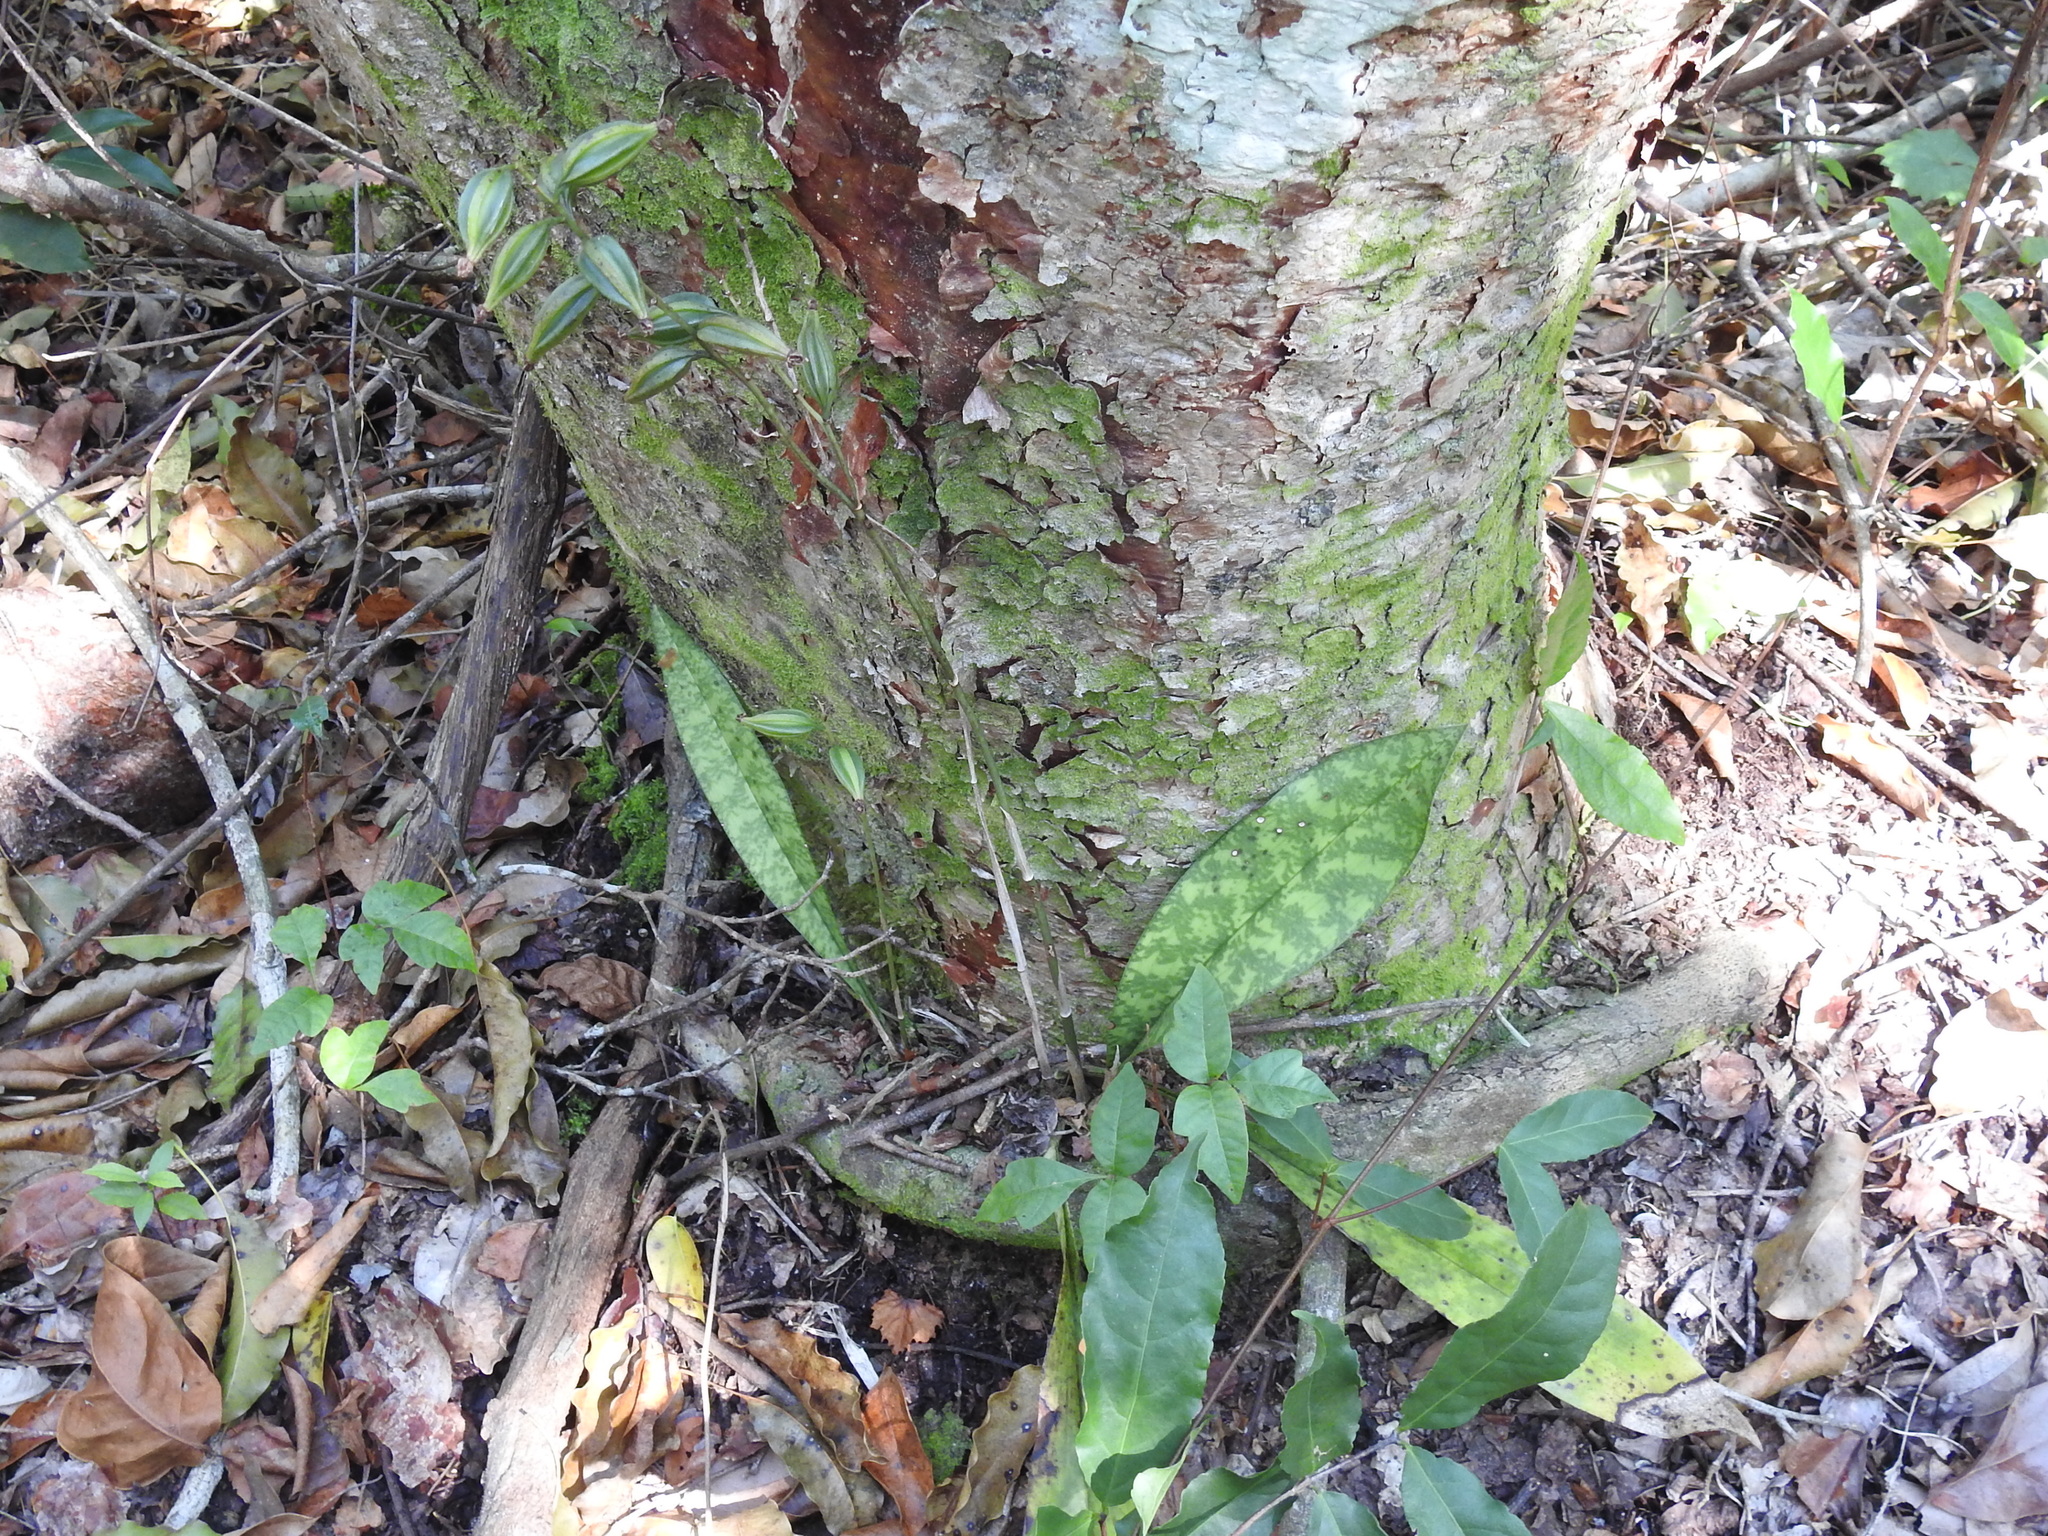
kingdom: Plantae
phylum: Tracheophyta
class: Liliopsida
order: Asparagales
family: Orchidaceae
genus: Eulophia
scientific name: Eulophia maculata
